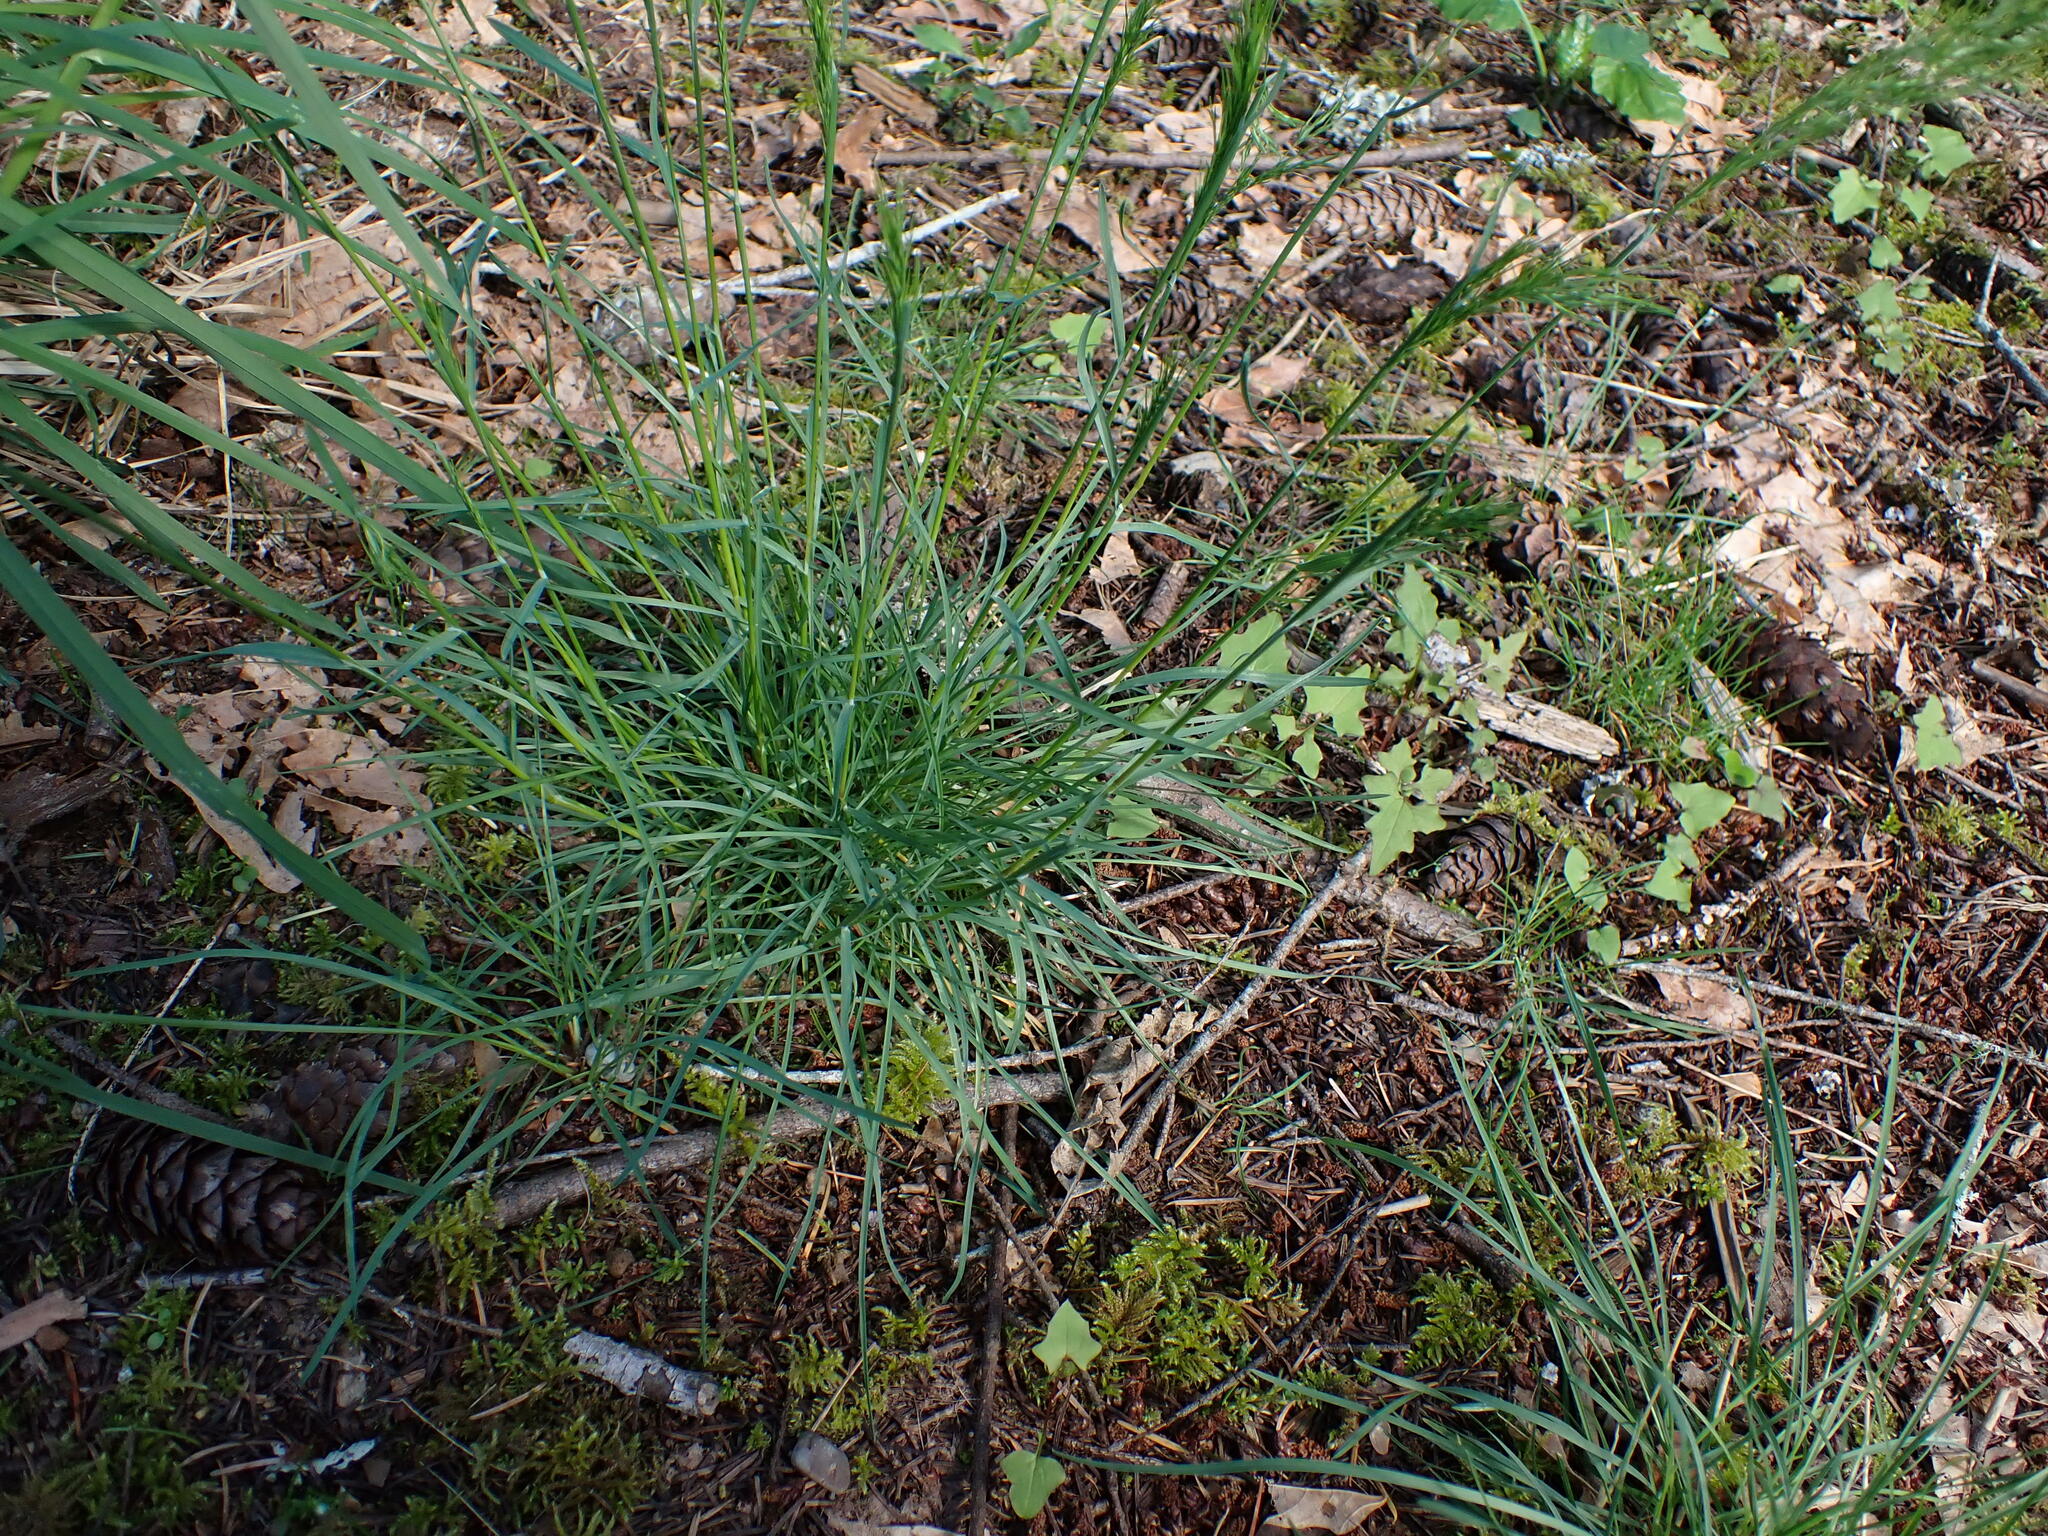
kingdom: Plantae
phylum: Tracheophyta
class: Liliopsida
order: Poales
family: Poaceae
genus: Poa
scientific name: Poa bulbosa
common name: Bulbous bluegrass
